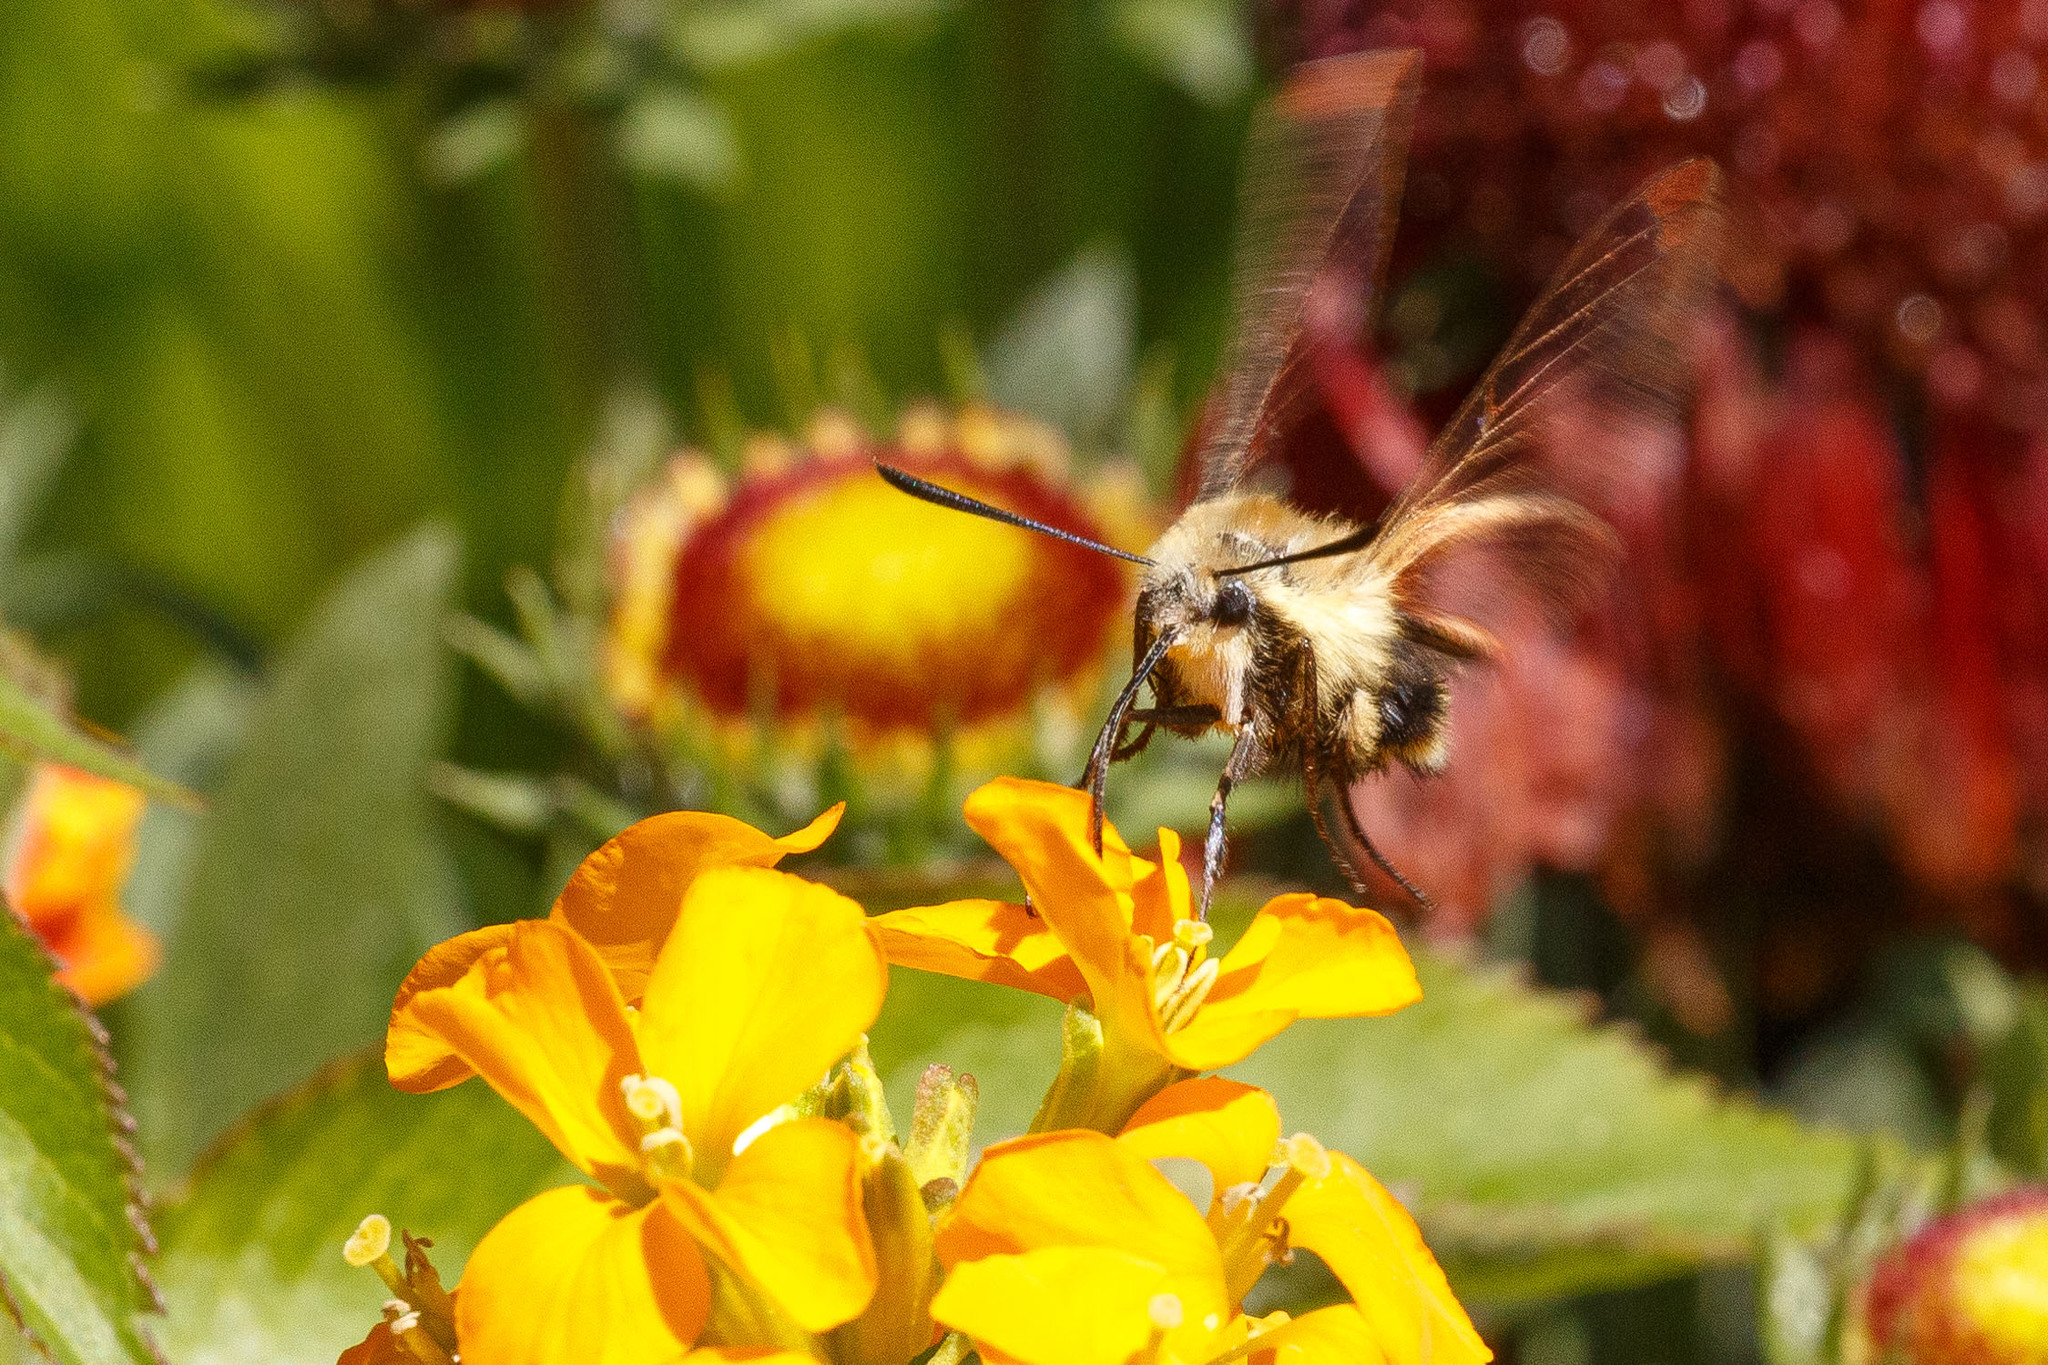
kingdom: Animalia
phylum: Arthropoda
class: Insecta
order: Lepidoptera
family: Sphingidae
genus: Hemaris
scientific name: Hemaris thetis
